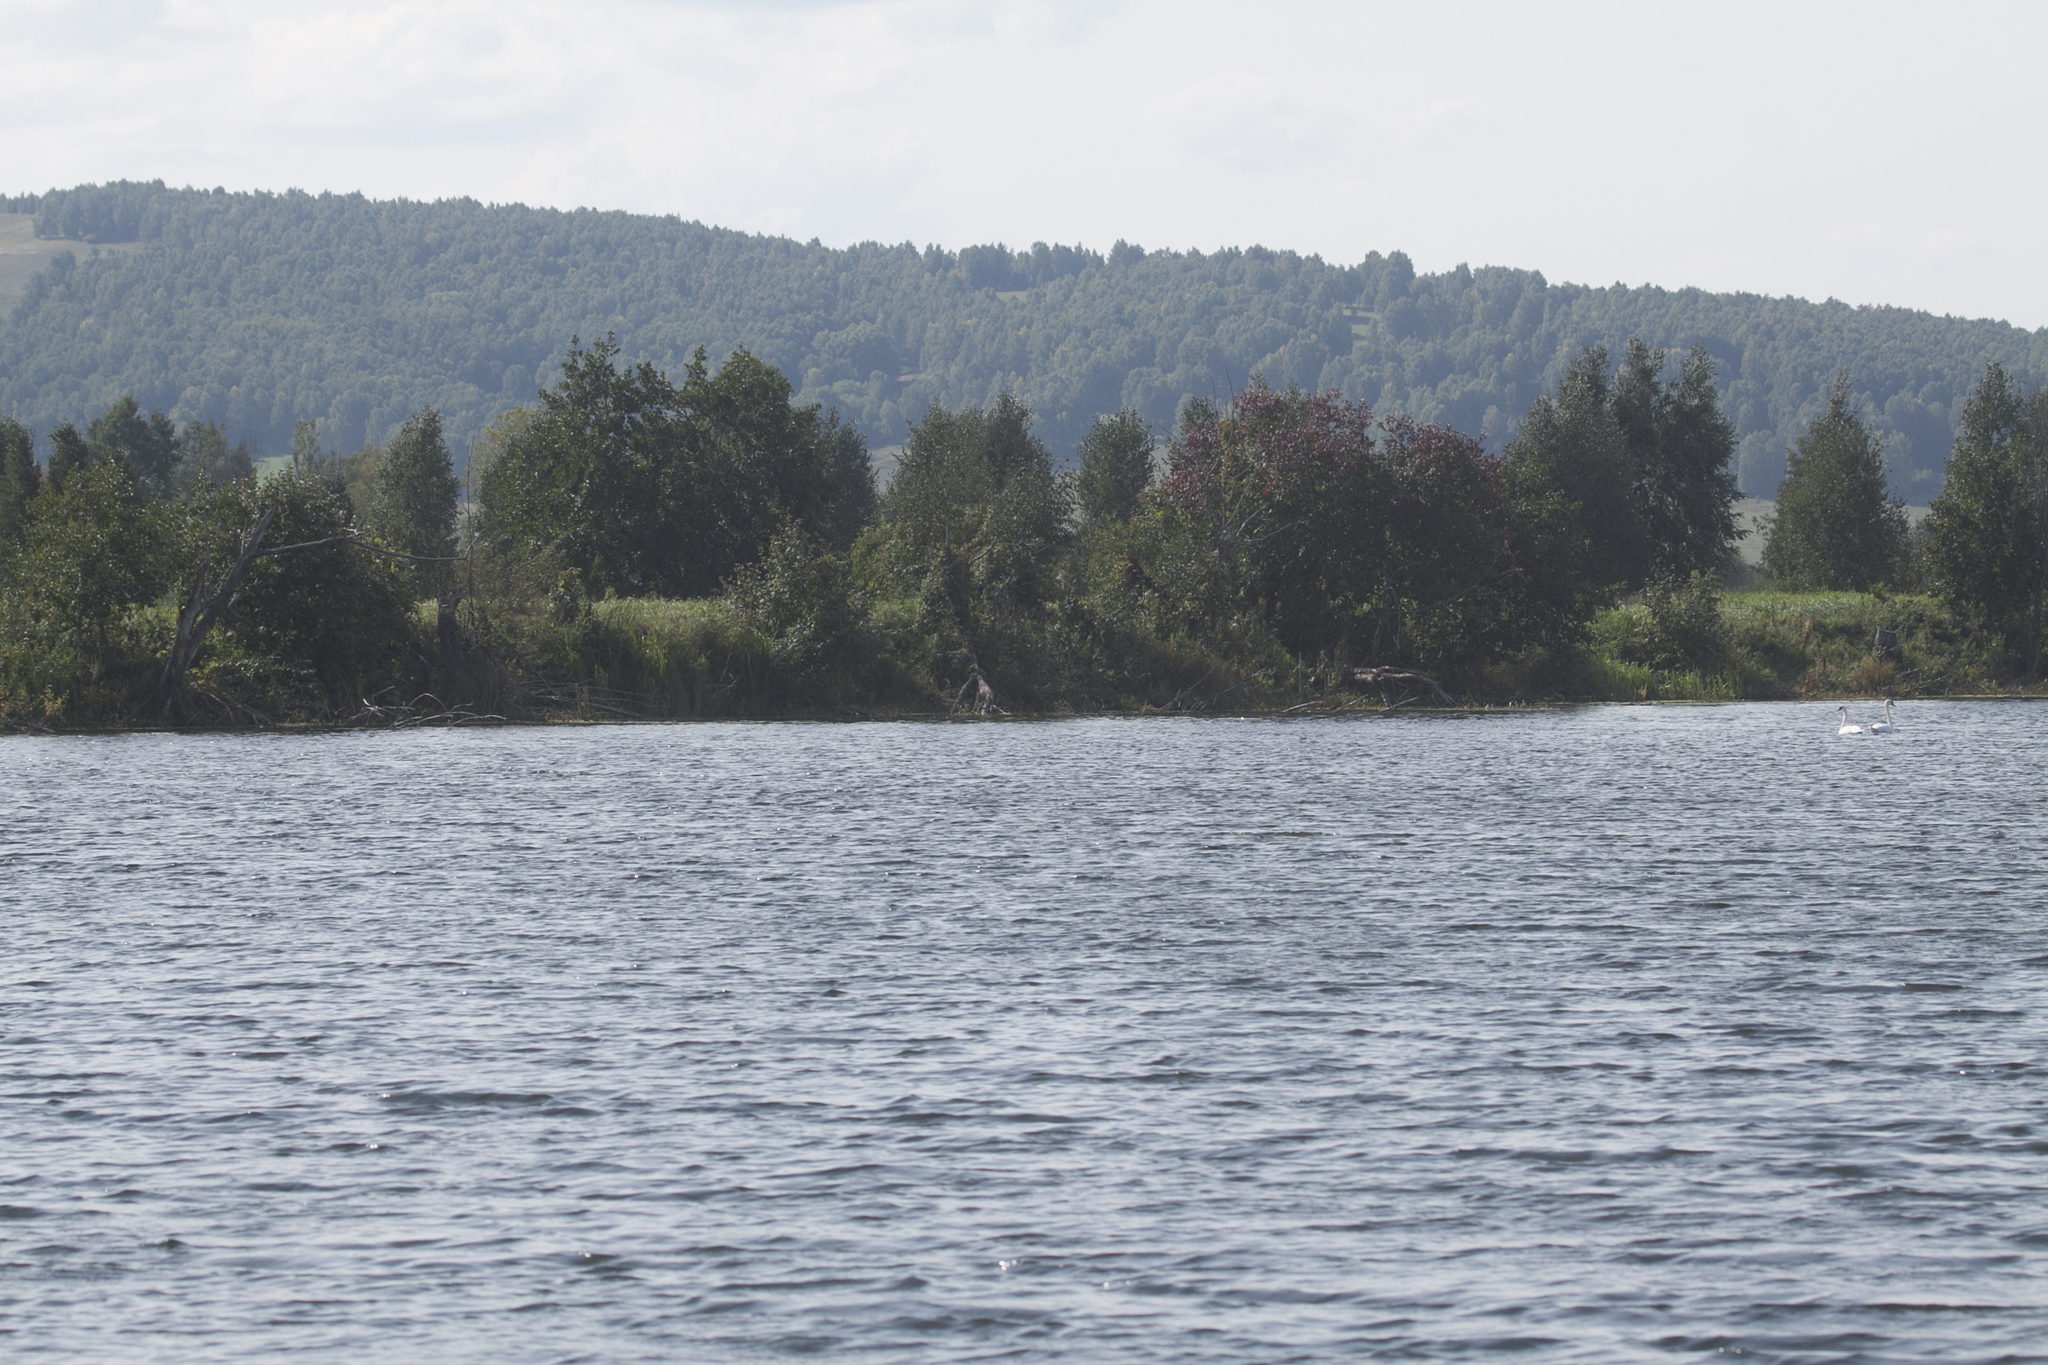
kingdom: Animalia
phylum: Chordata
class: Aves
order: Anseriformes
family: Anatidae
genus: Cygnus
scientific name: Cygnus olor
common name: Mute swan
